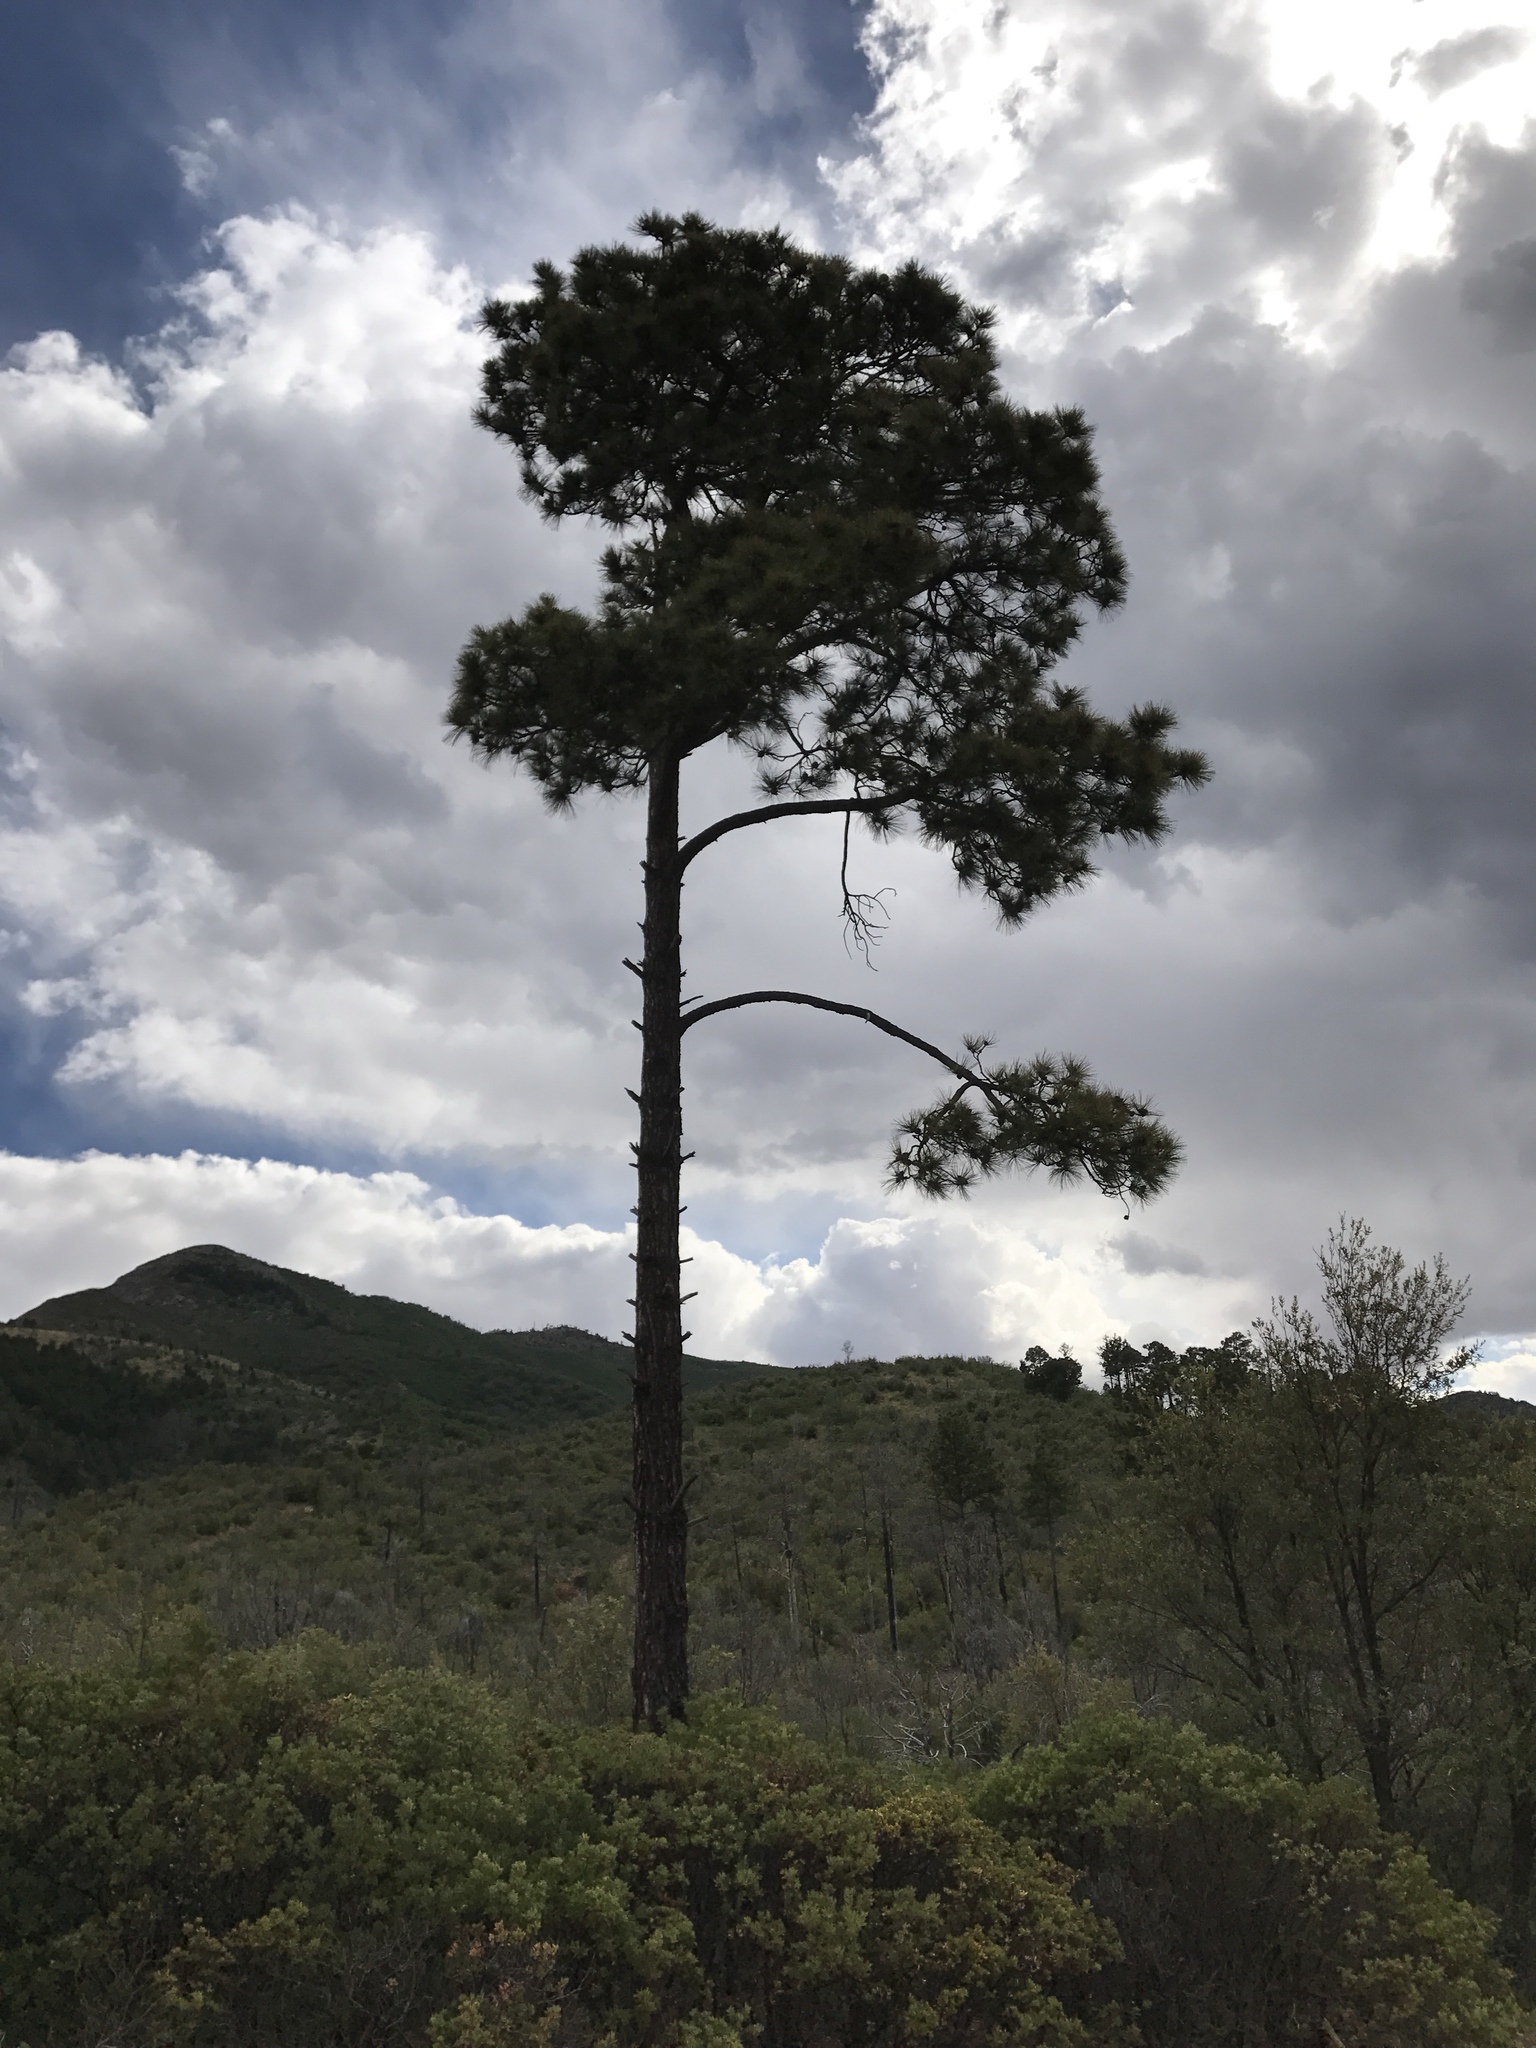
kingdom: Plantae
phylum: Tracheophyta
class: Pinopsida
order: Pinales
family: Pinaceae
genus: Pinus
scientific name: Pinus engelmannii
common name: Apache pine
